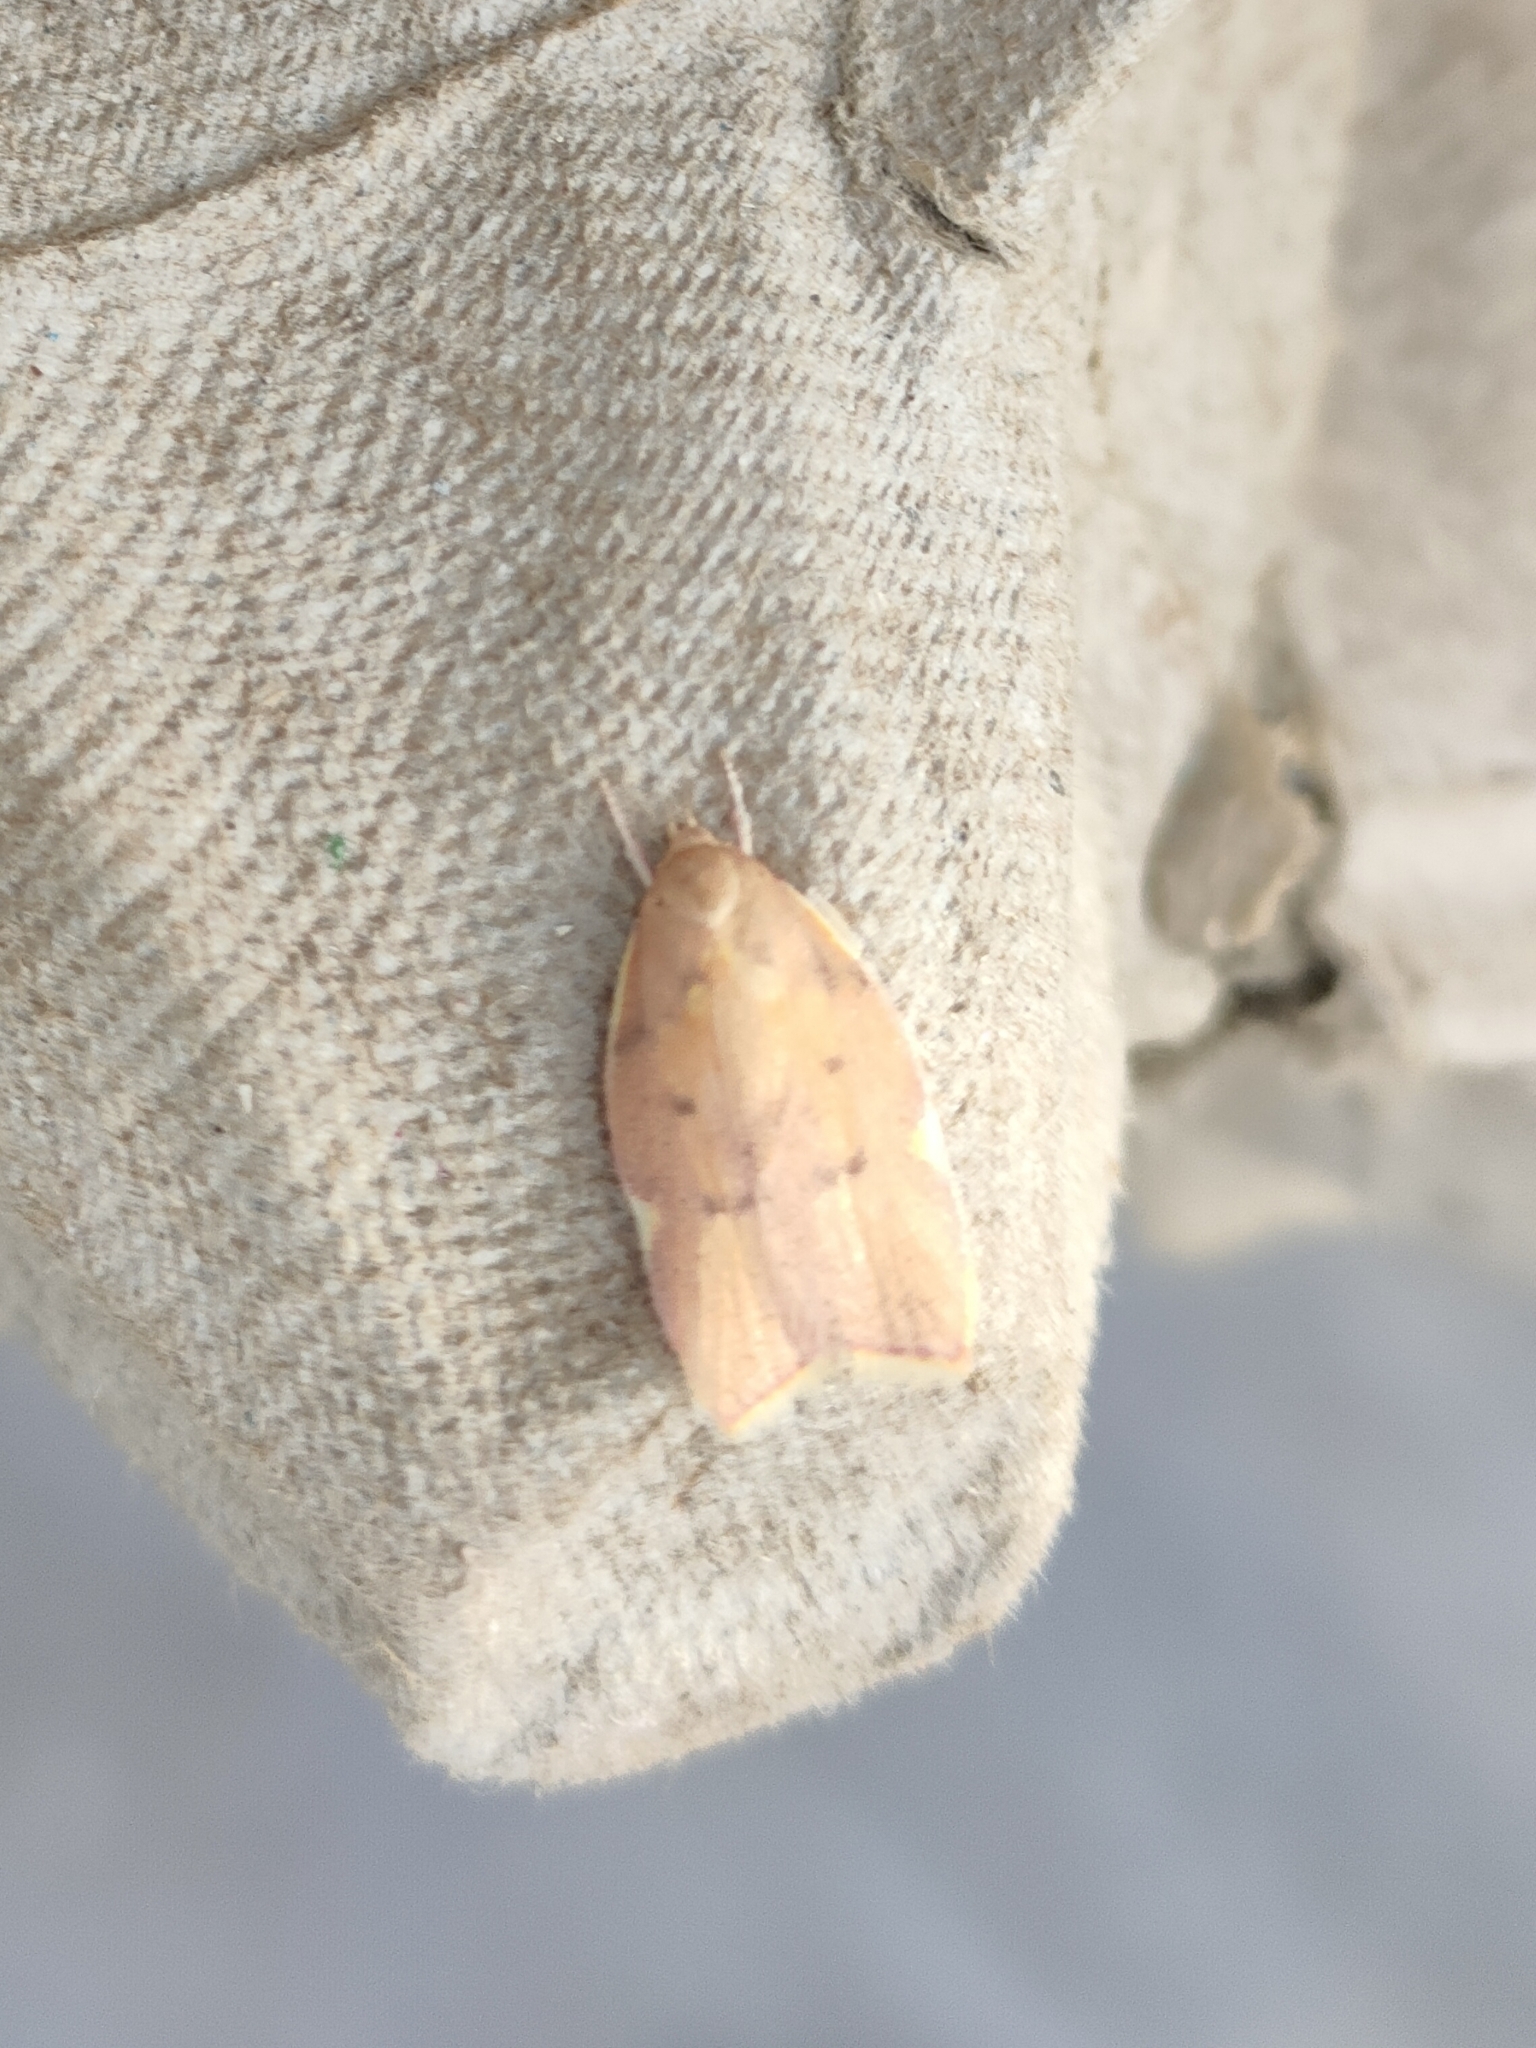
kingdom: Animalia
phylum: Arthropoda
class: Insecta
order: Lepidoptera
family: Peleopodidae
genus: Carcina
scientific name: Carcina quercana
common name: Moth
